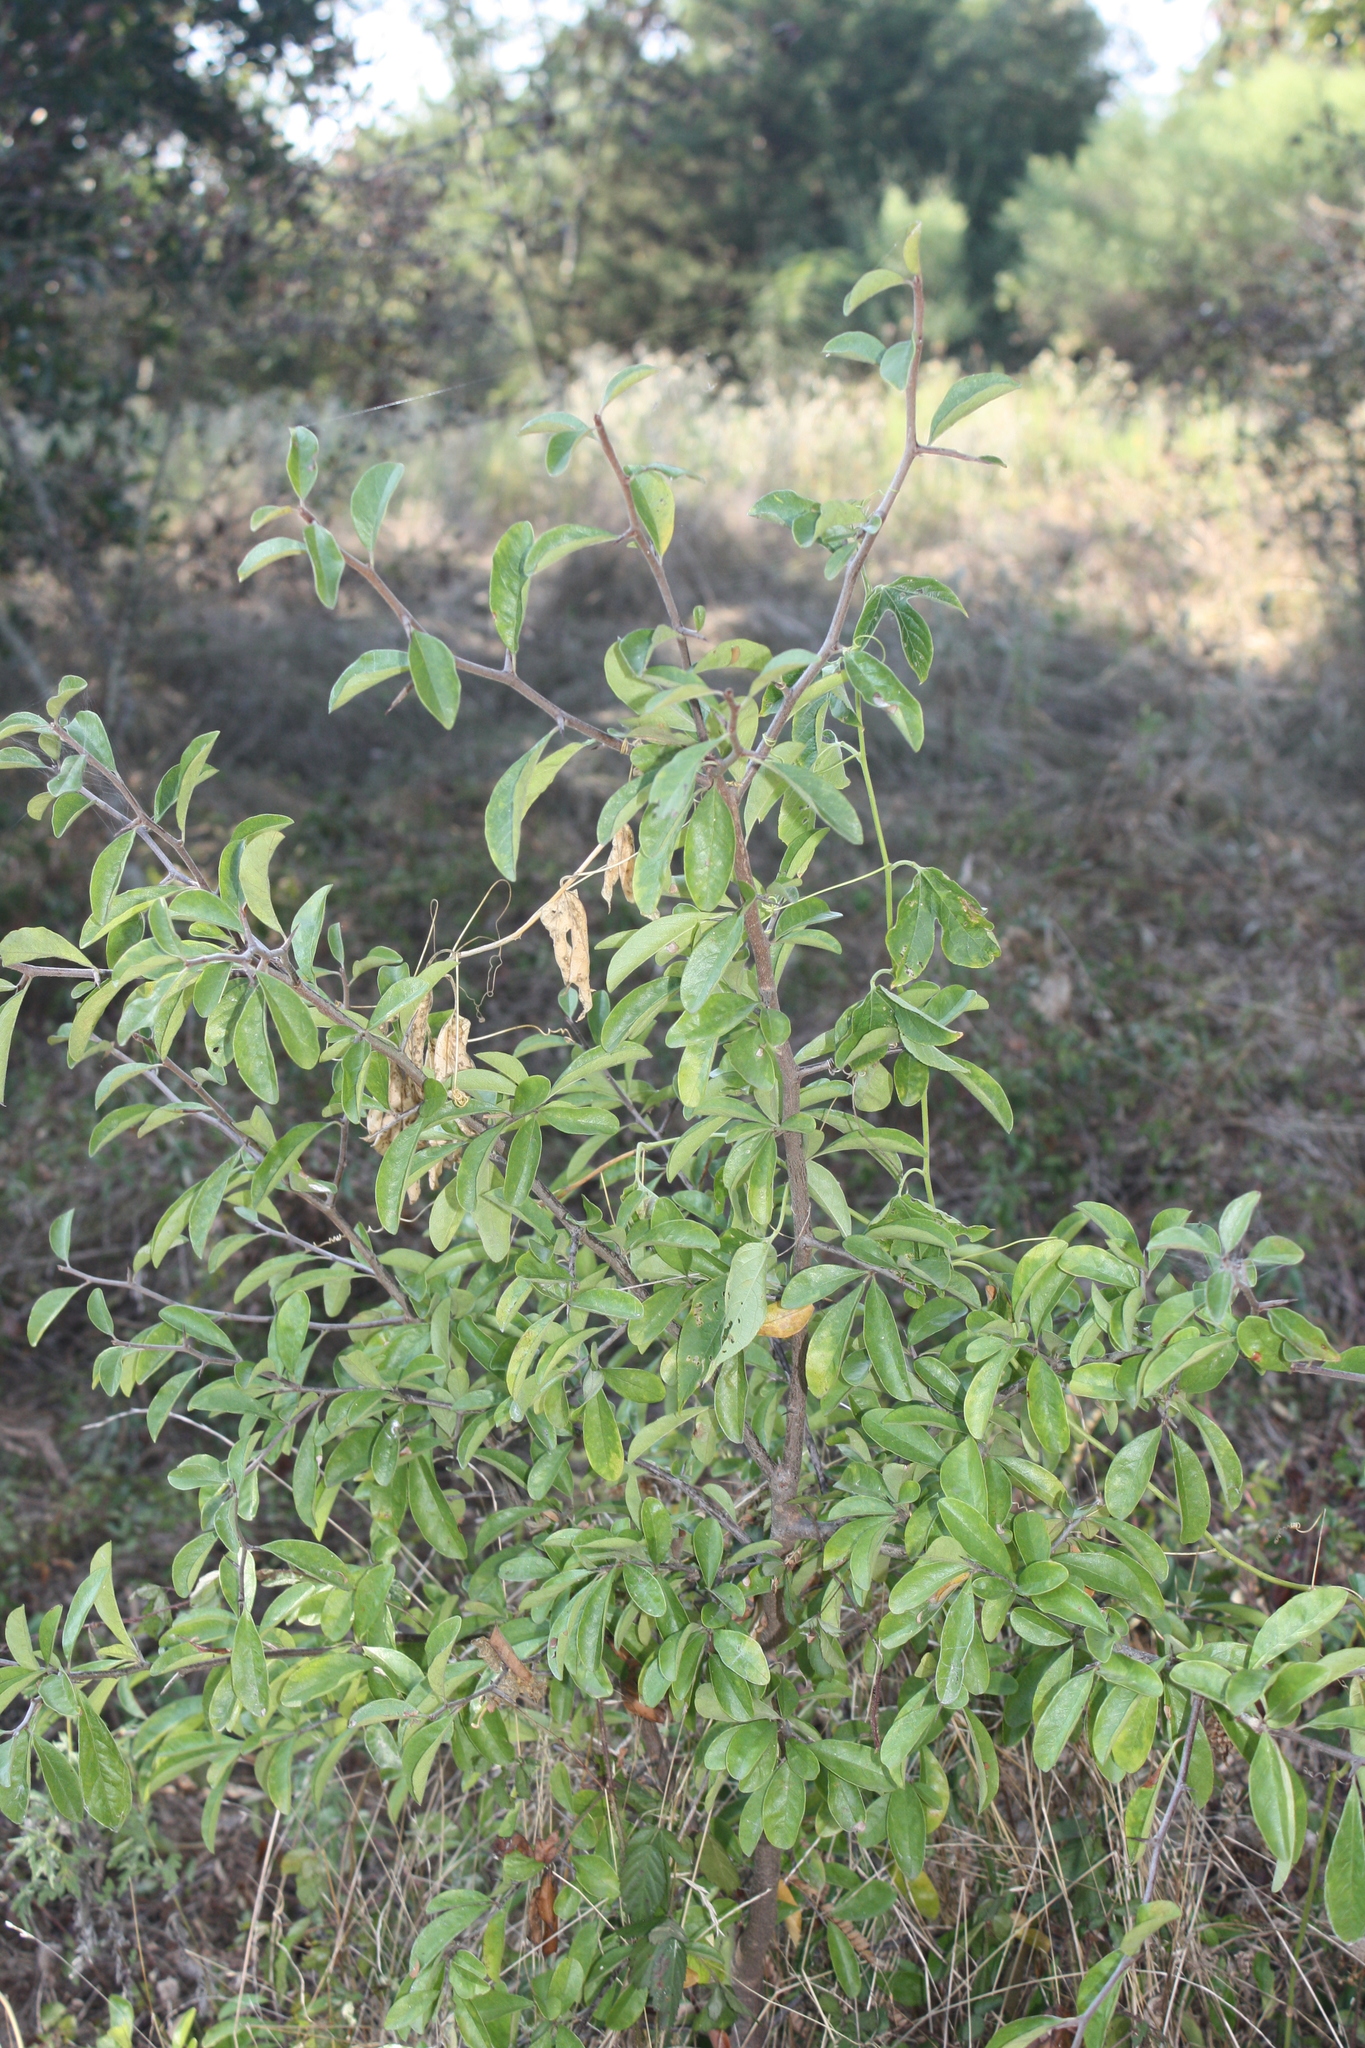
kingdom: Plantae
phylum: Tracheophyta
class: Magnoliopsida
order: Ericales
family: Sapotaceae
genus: Sideroxylon
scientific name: Sideroxylon lanuginosum
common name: Chittamwood
